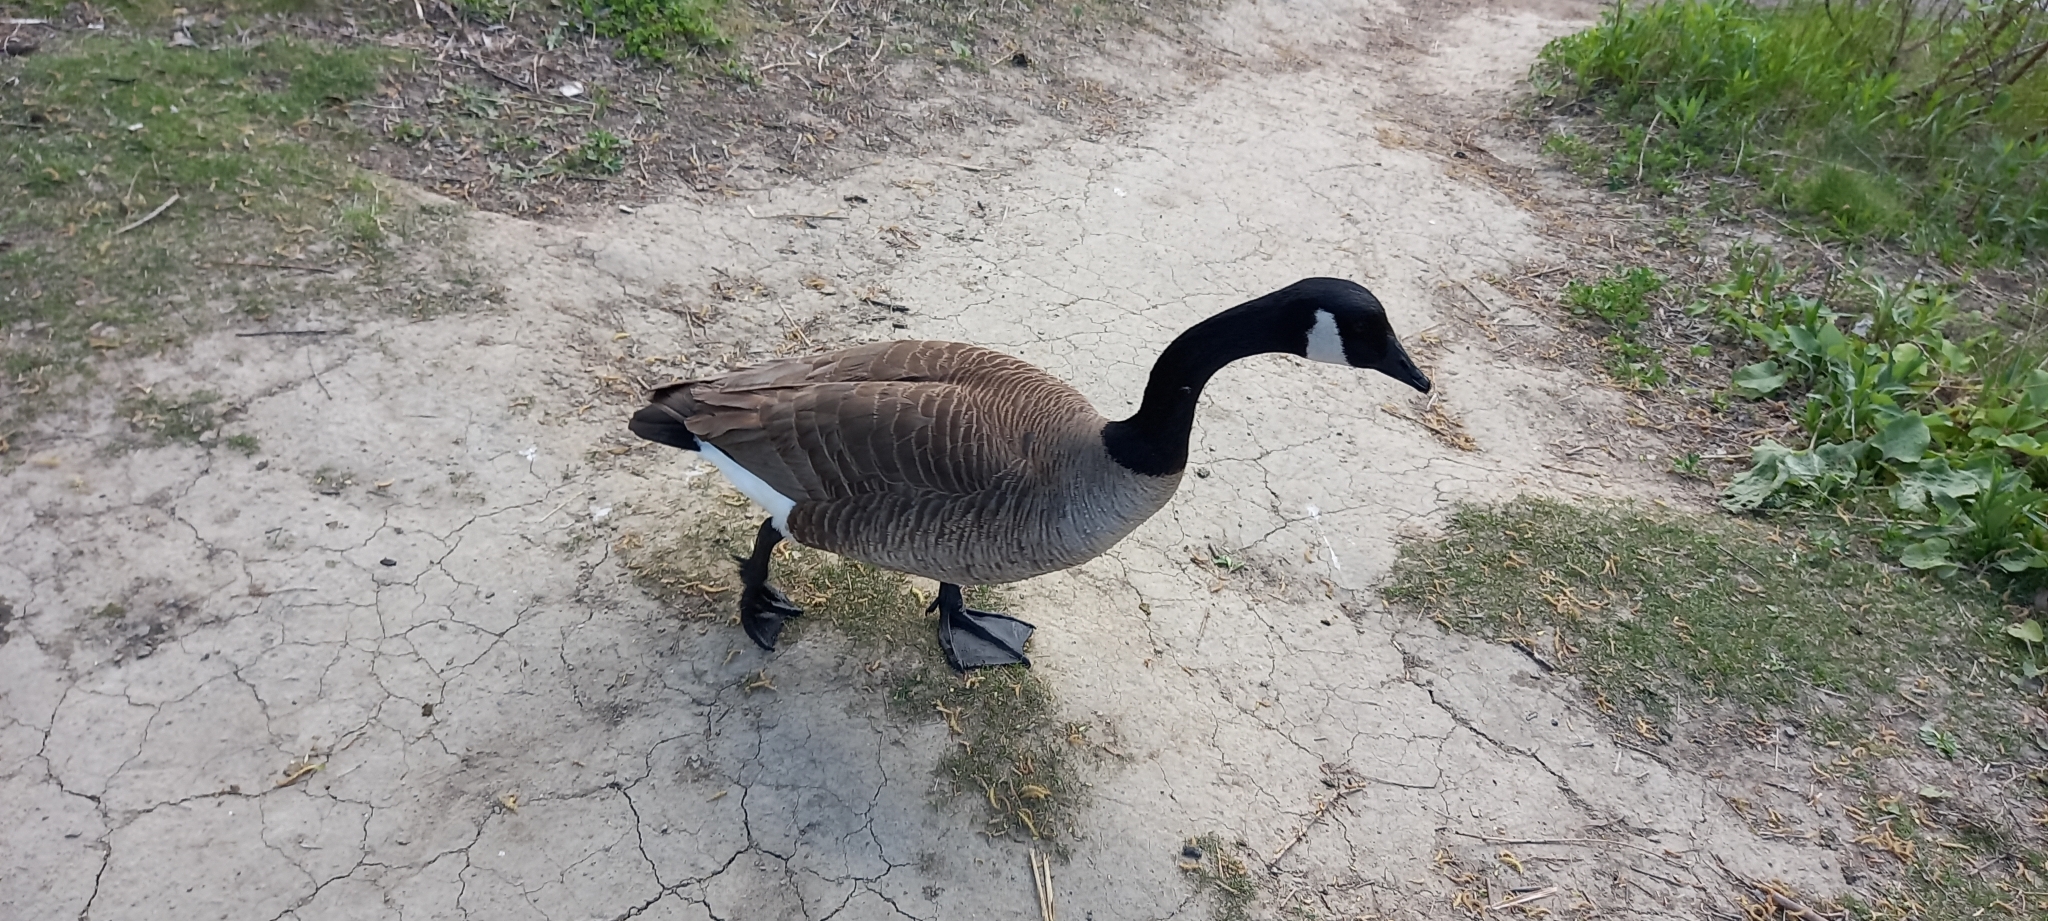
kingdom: Animalia
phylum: Chordata
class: Aves
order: Anseriformes
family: Anatidae
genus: Branta
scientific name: Branta canadensis
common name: Canada goose
